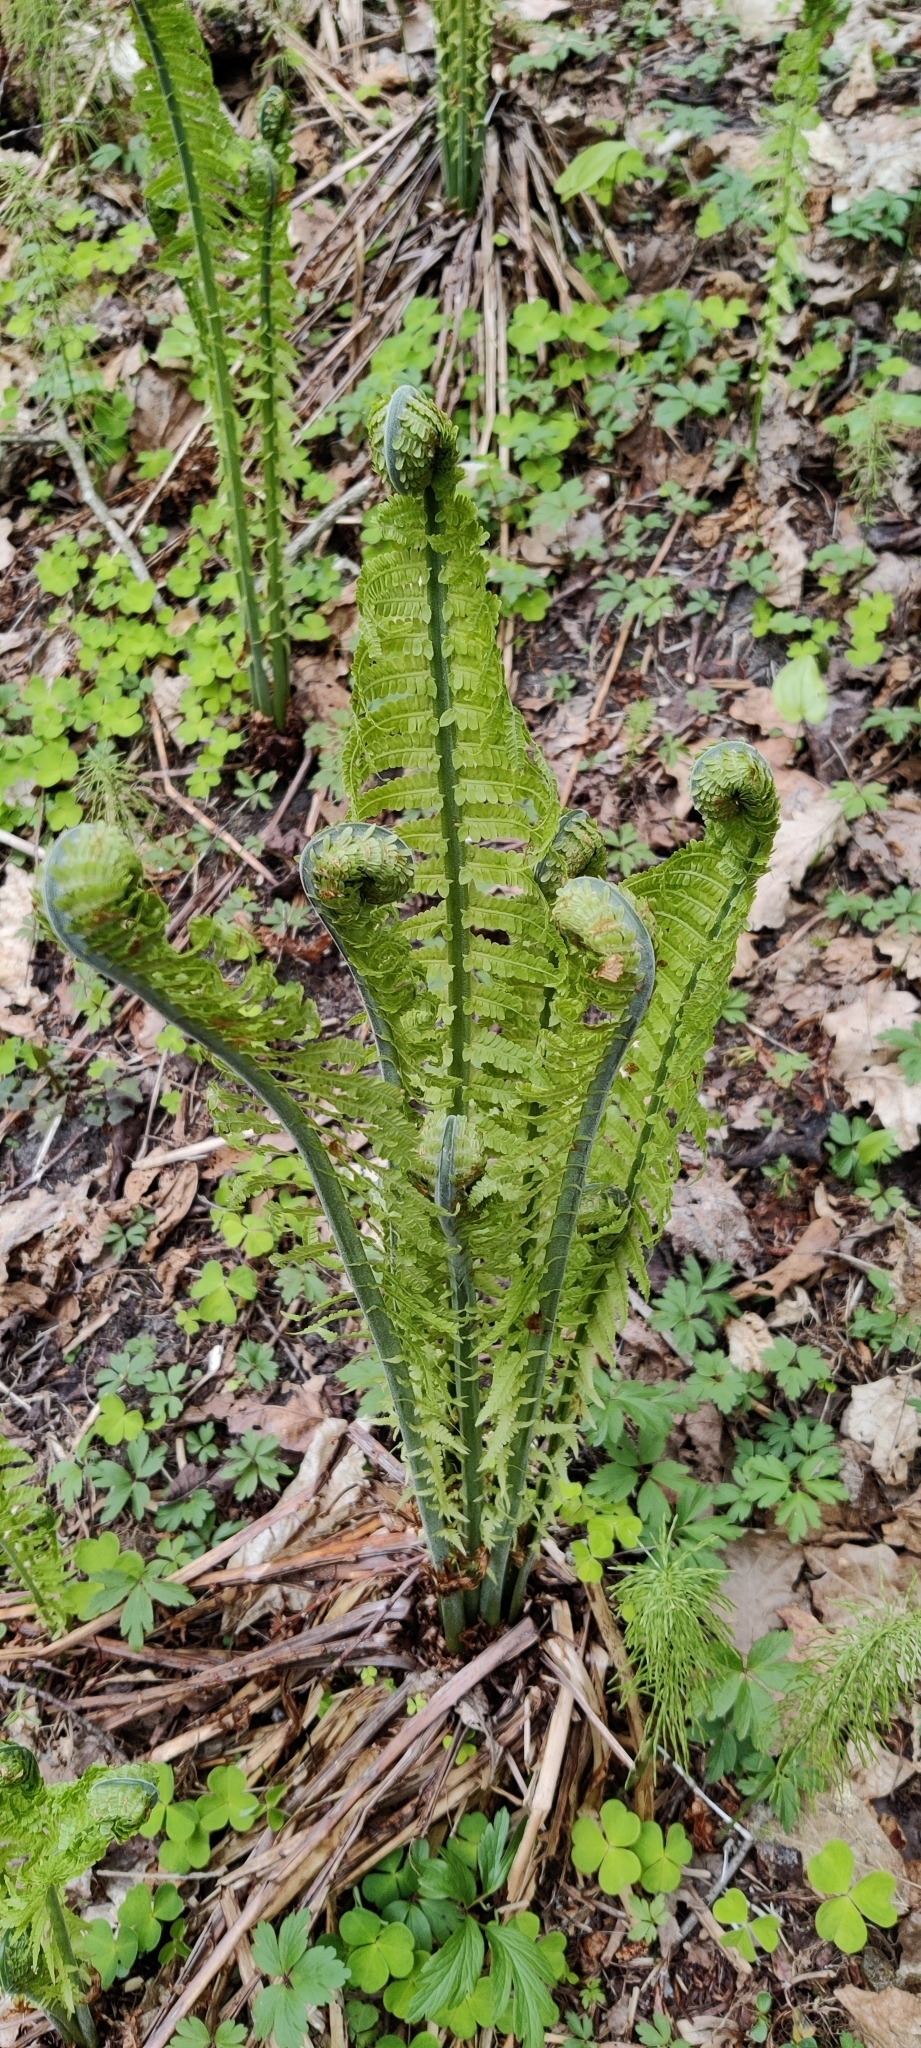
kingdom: Plantae
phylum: Tracheophyta
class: Polypodiopsida
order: Polypodiales
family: Onocleaceae
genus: Matteuccia
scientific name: Matteuccia struthiopteris
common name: Ostrich fern
